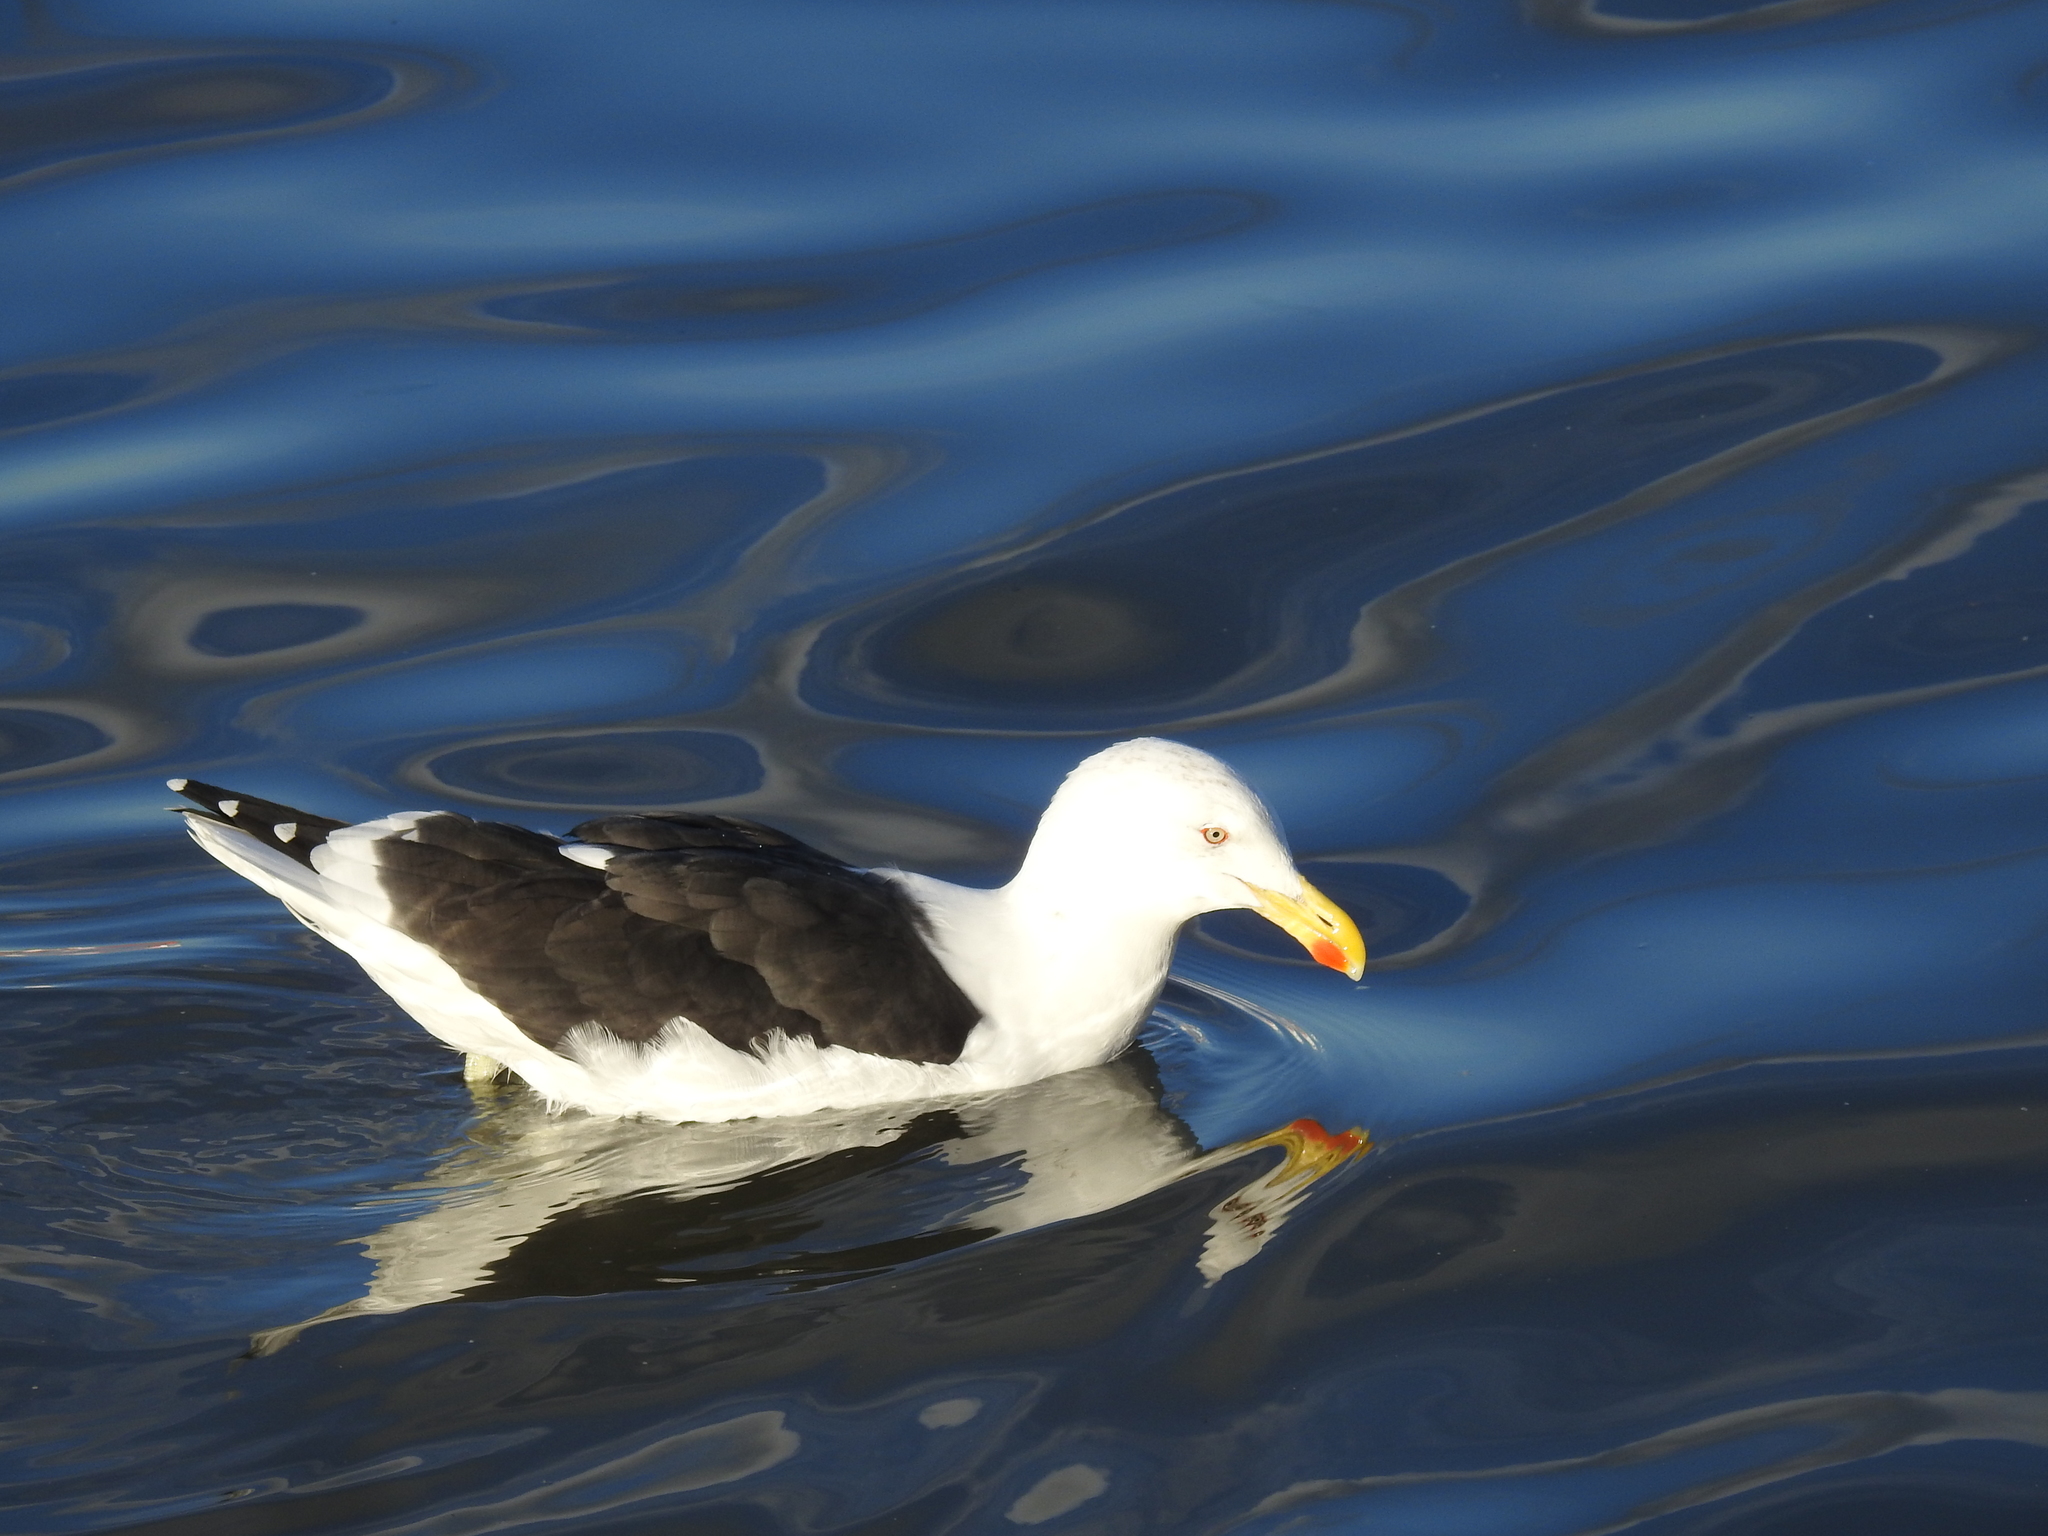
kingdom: Animalia
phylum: Chordata
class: Aves
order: Charadriiformes
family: Laridae
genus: Larus
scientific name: Larus dominicanus
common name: Kelp gull
